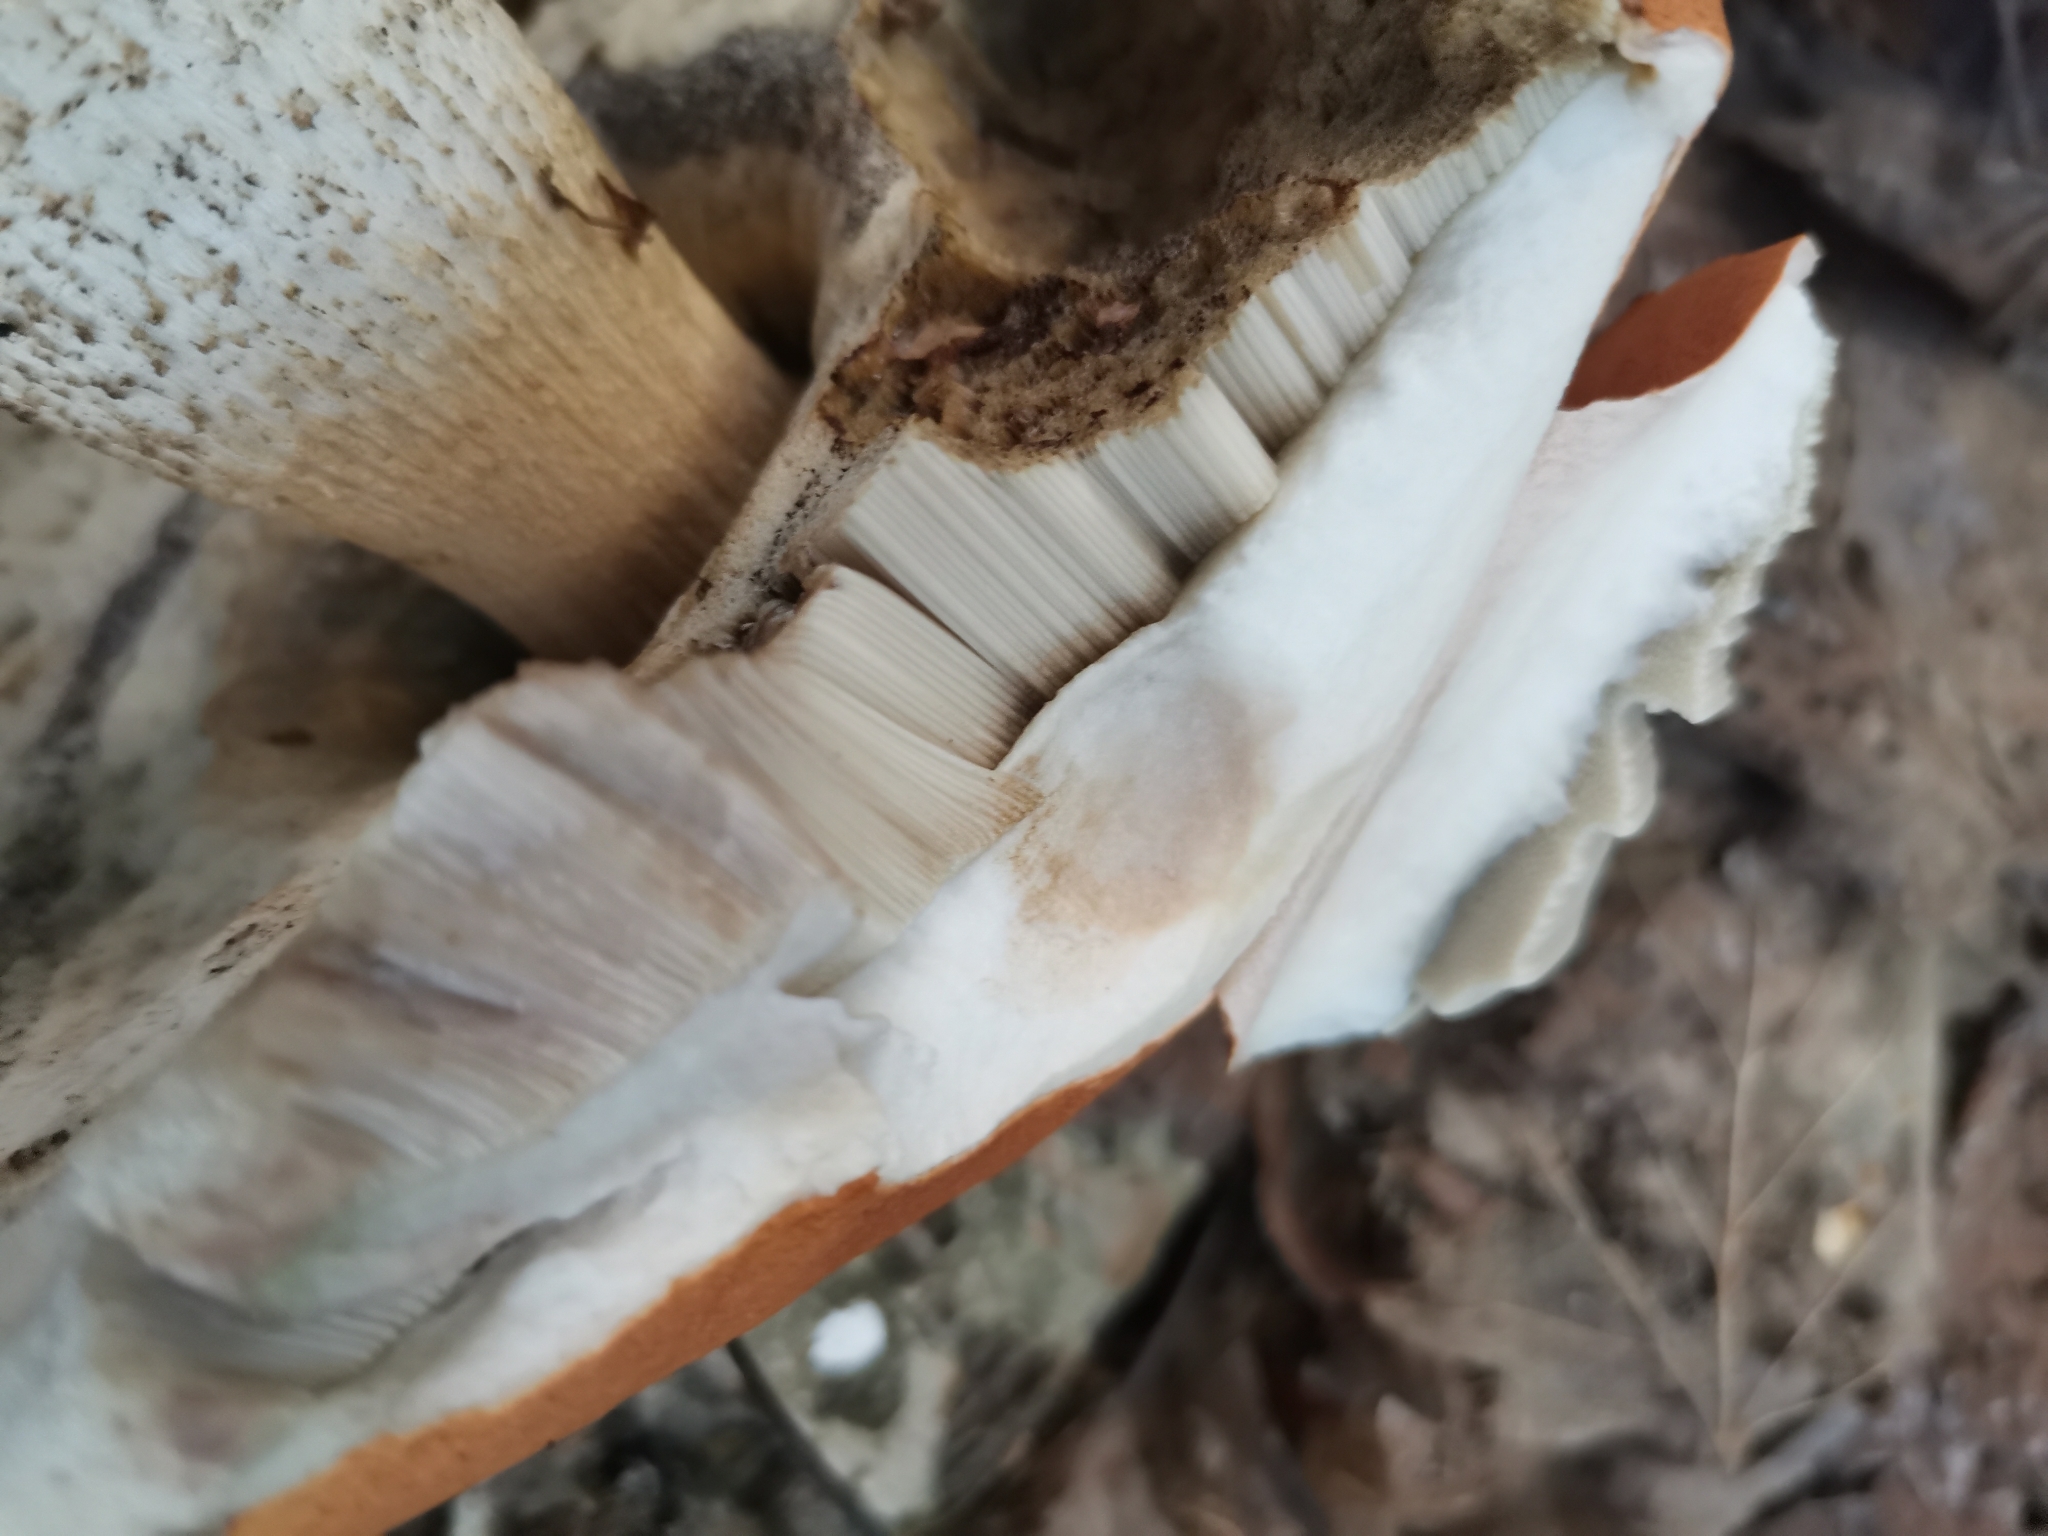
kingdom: Fungi
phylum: Basidiomycota
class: Agaricomycetes
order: Boletales
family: Boletaceae
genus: Leccinum
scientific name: Leccinum albostipitatum
